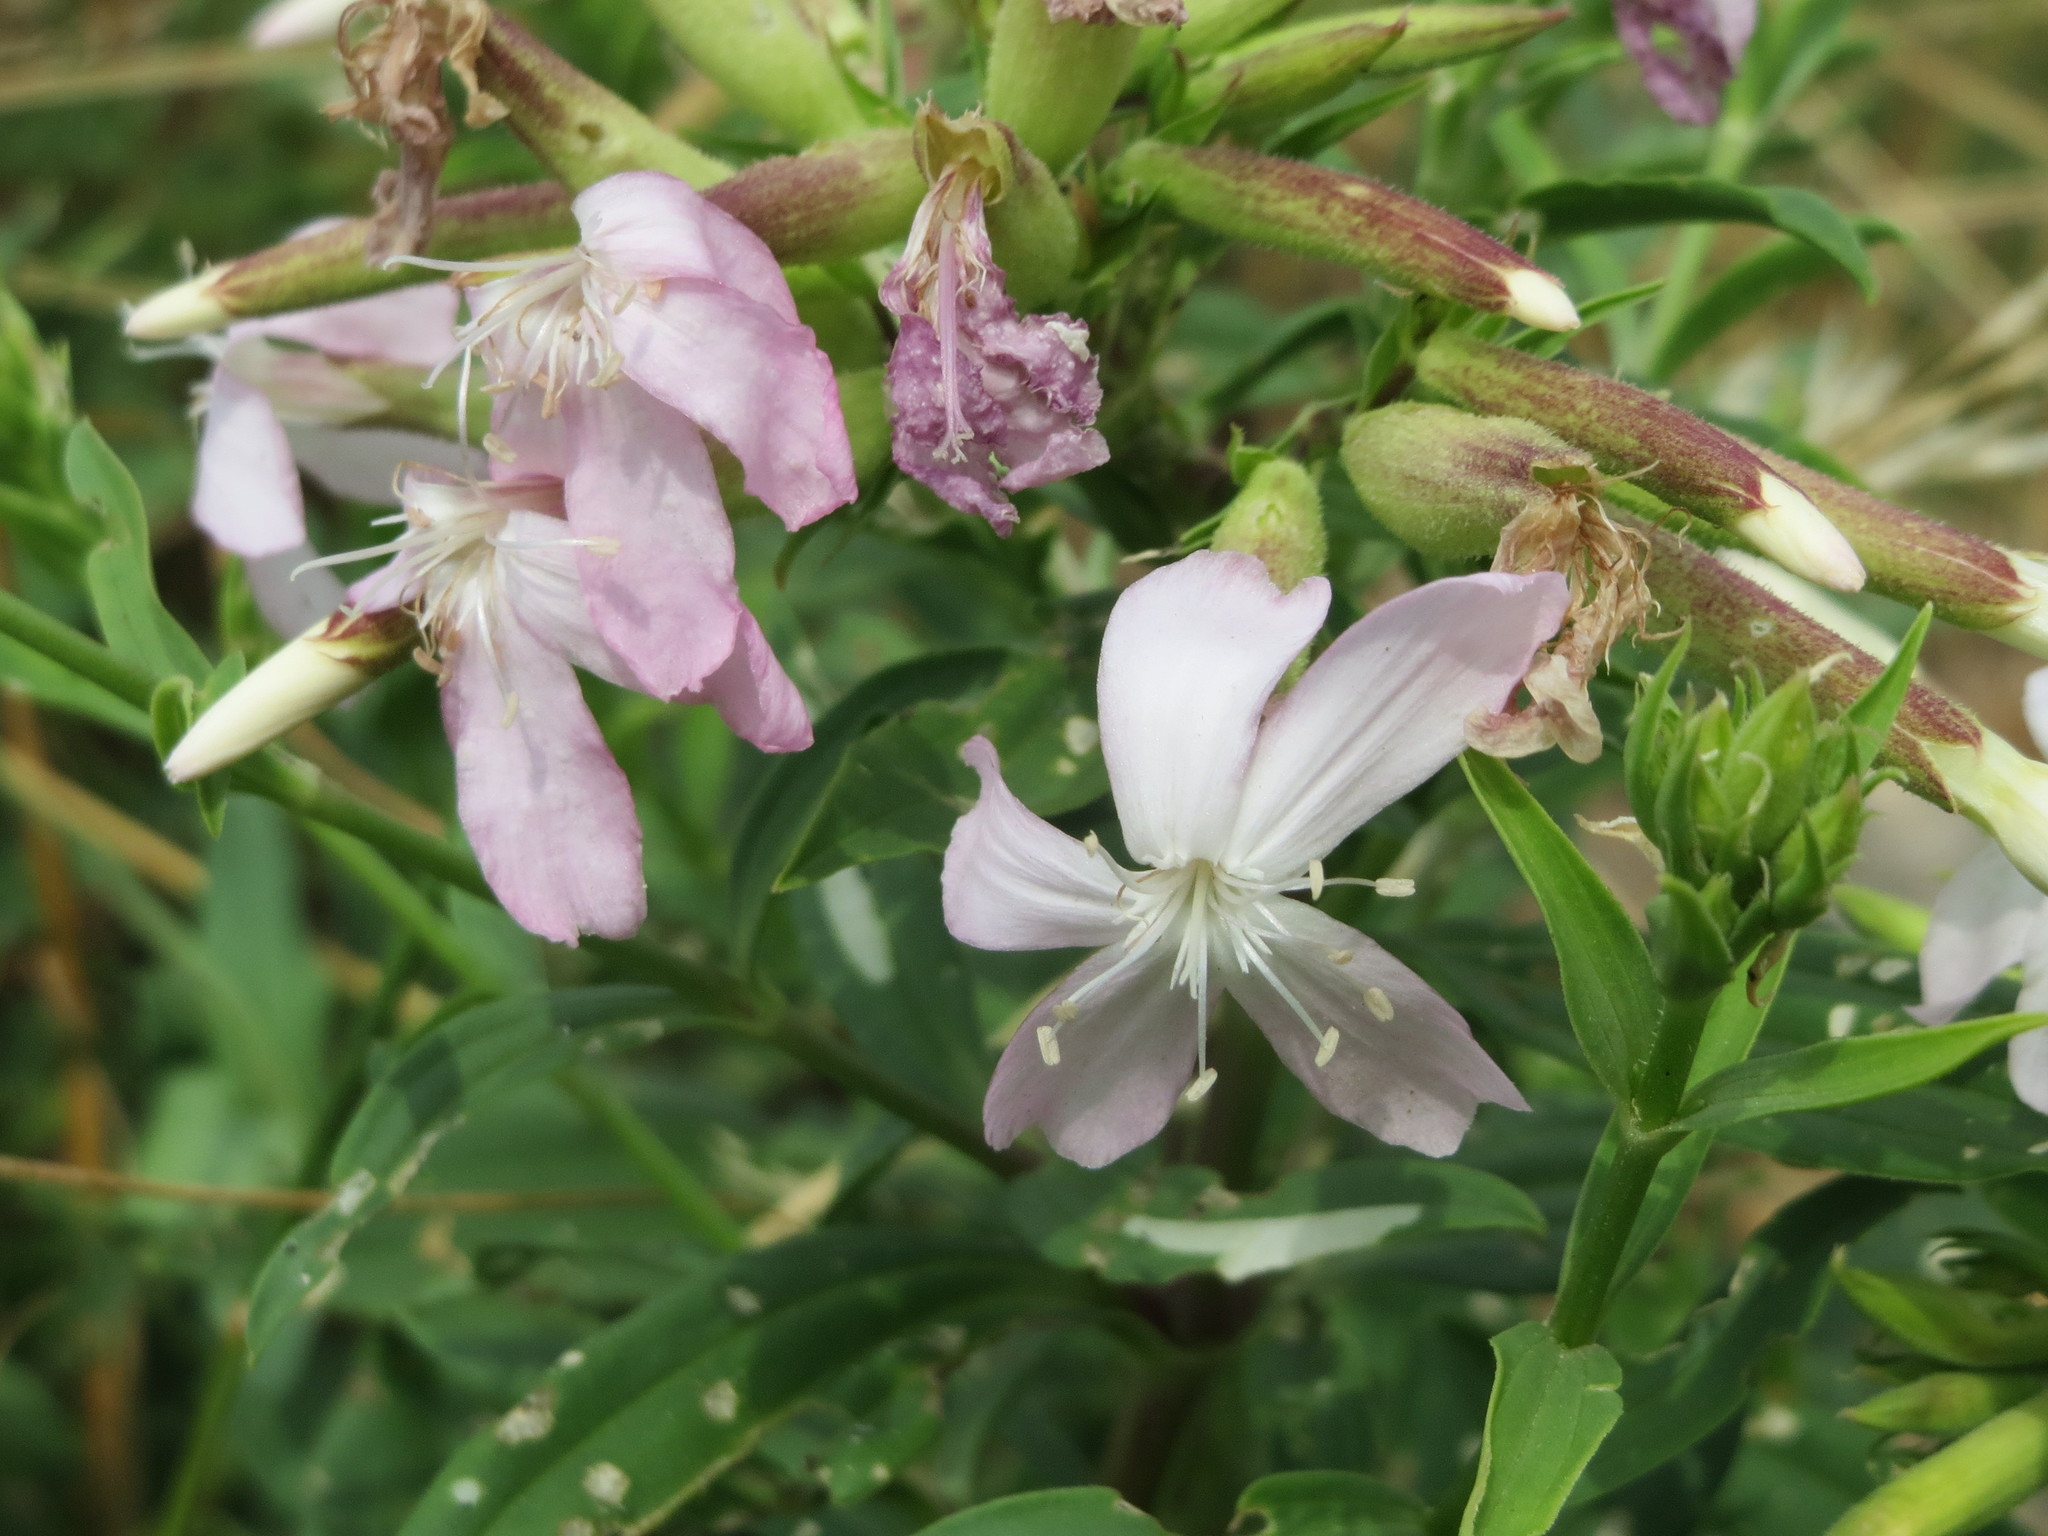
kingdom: Plantae
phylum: Tracheophyta
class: Magnoliopsida
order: Caryophyllales
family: Caryophyllaceae
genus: Saponaria
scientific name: Saponaria officinalis
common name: Soapwort
